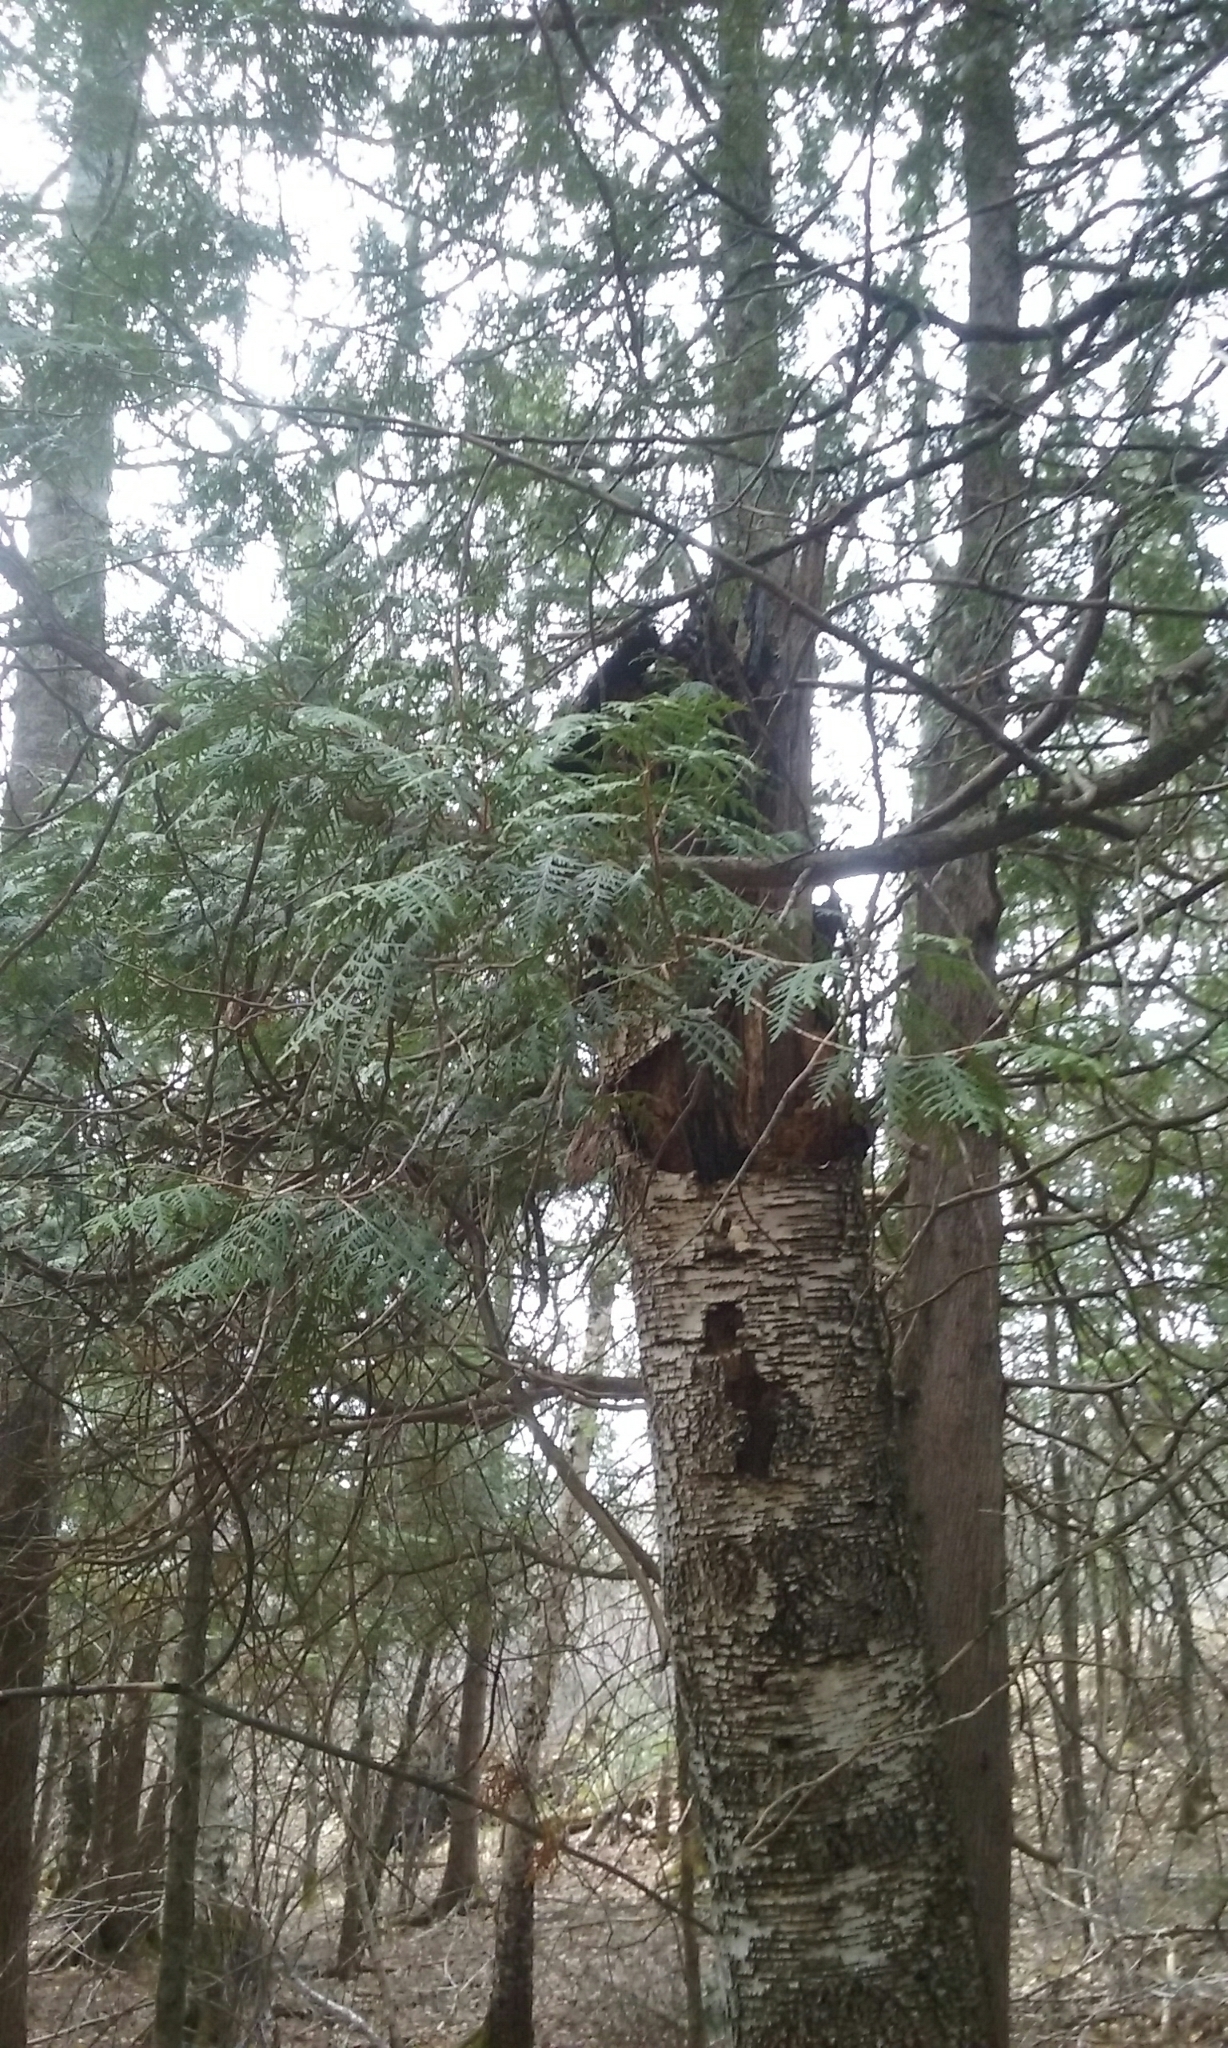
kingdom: Plantae
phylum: Tracheophyta
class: Pinopsida
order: Pinales
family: Cupressaceae
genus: Thuja
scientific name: Thuja occidentalis
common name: Northern white-cedar
